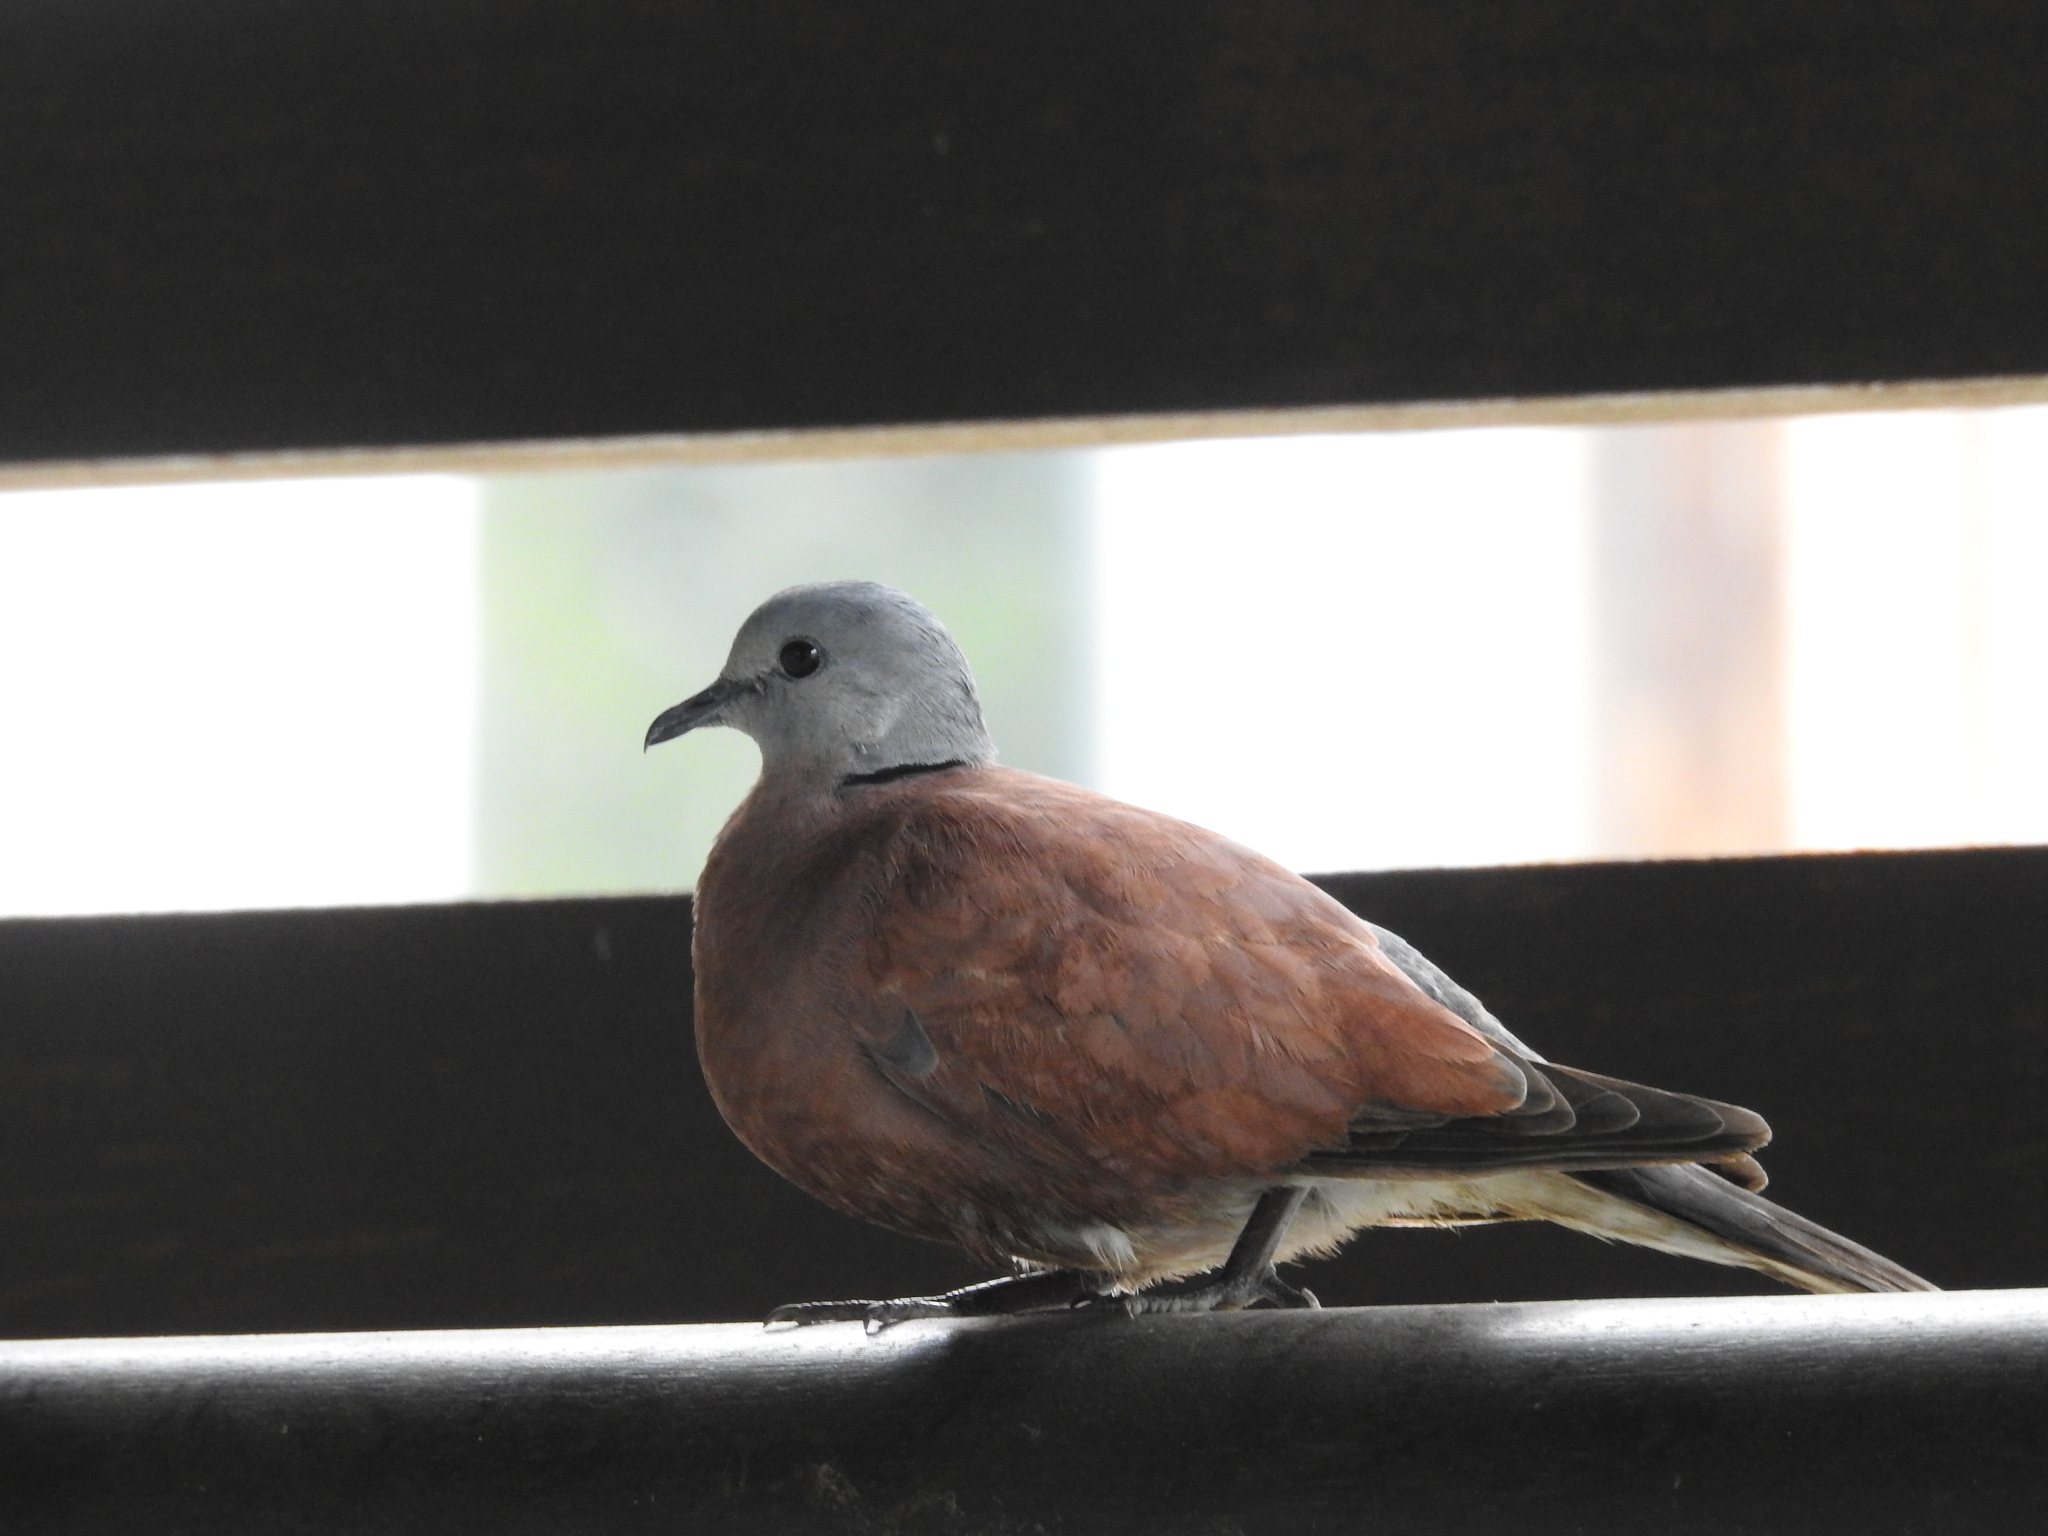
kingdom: Animalia
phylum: Chordata
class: Aves
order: Columbiformes
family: Columbidae
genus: Streptopelia
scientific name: Streptopelia tranquebarica
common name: Red turtle dove
